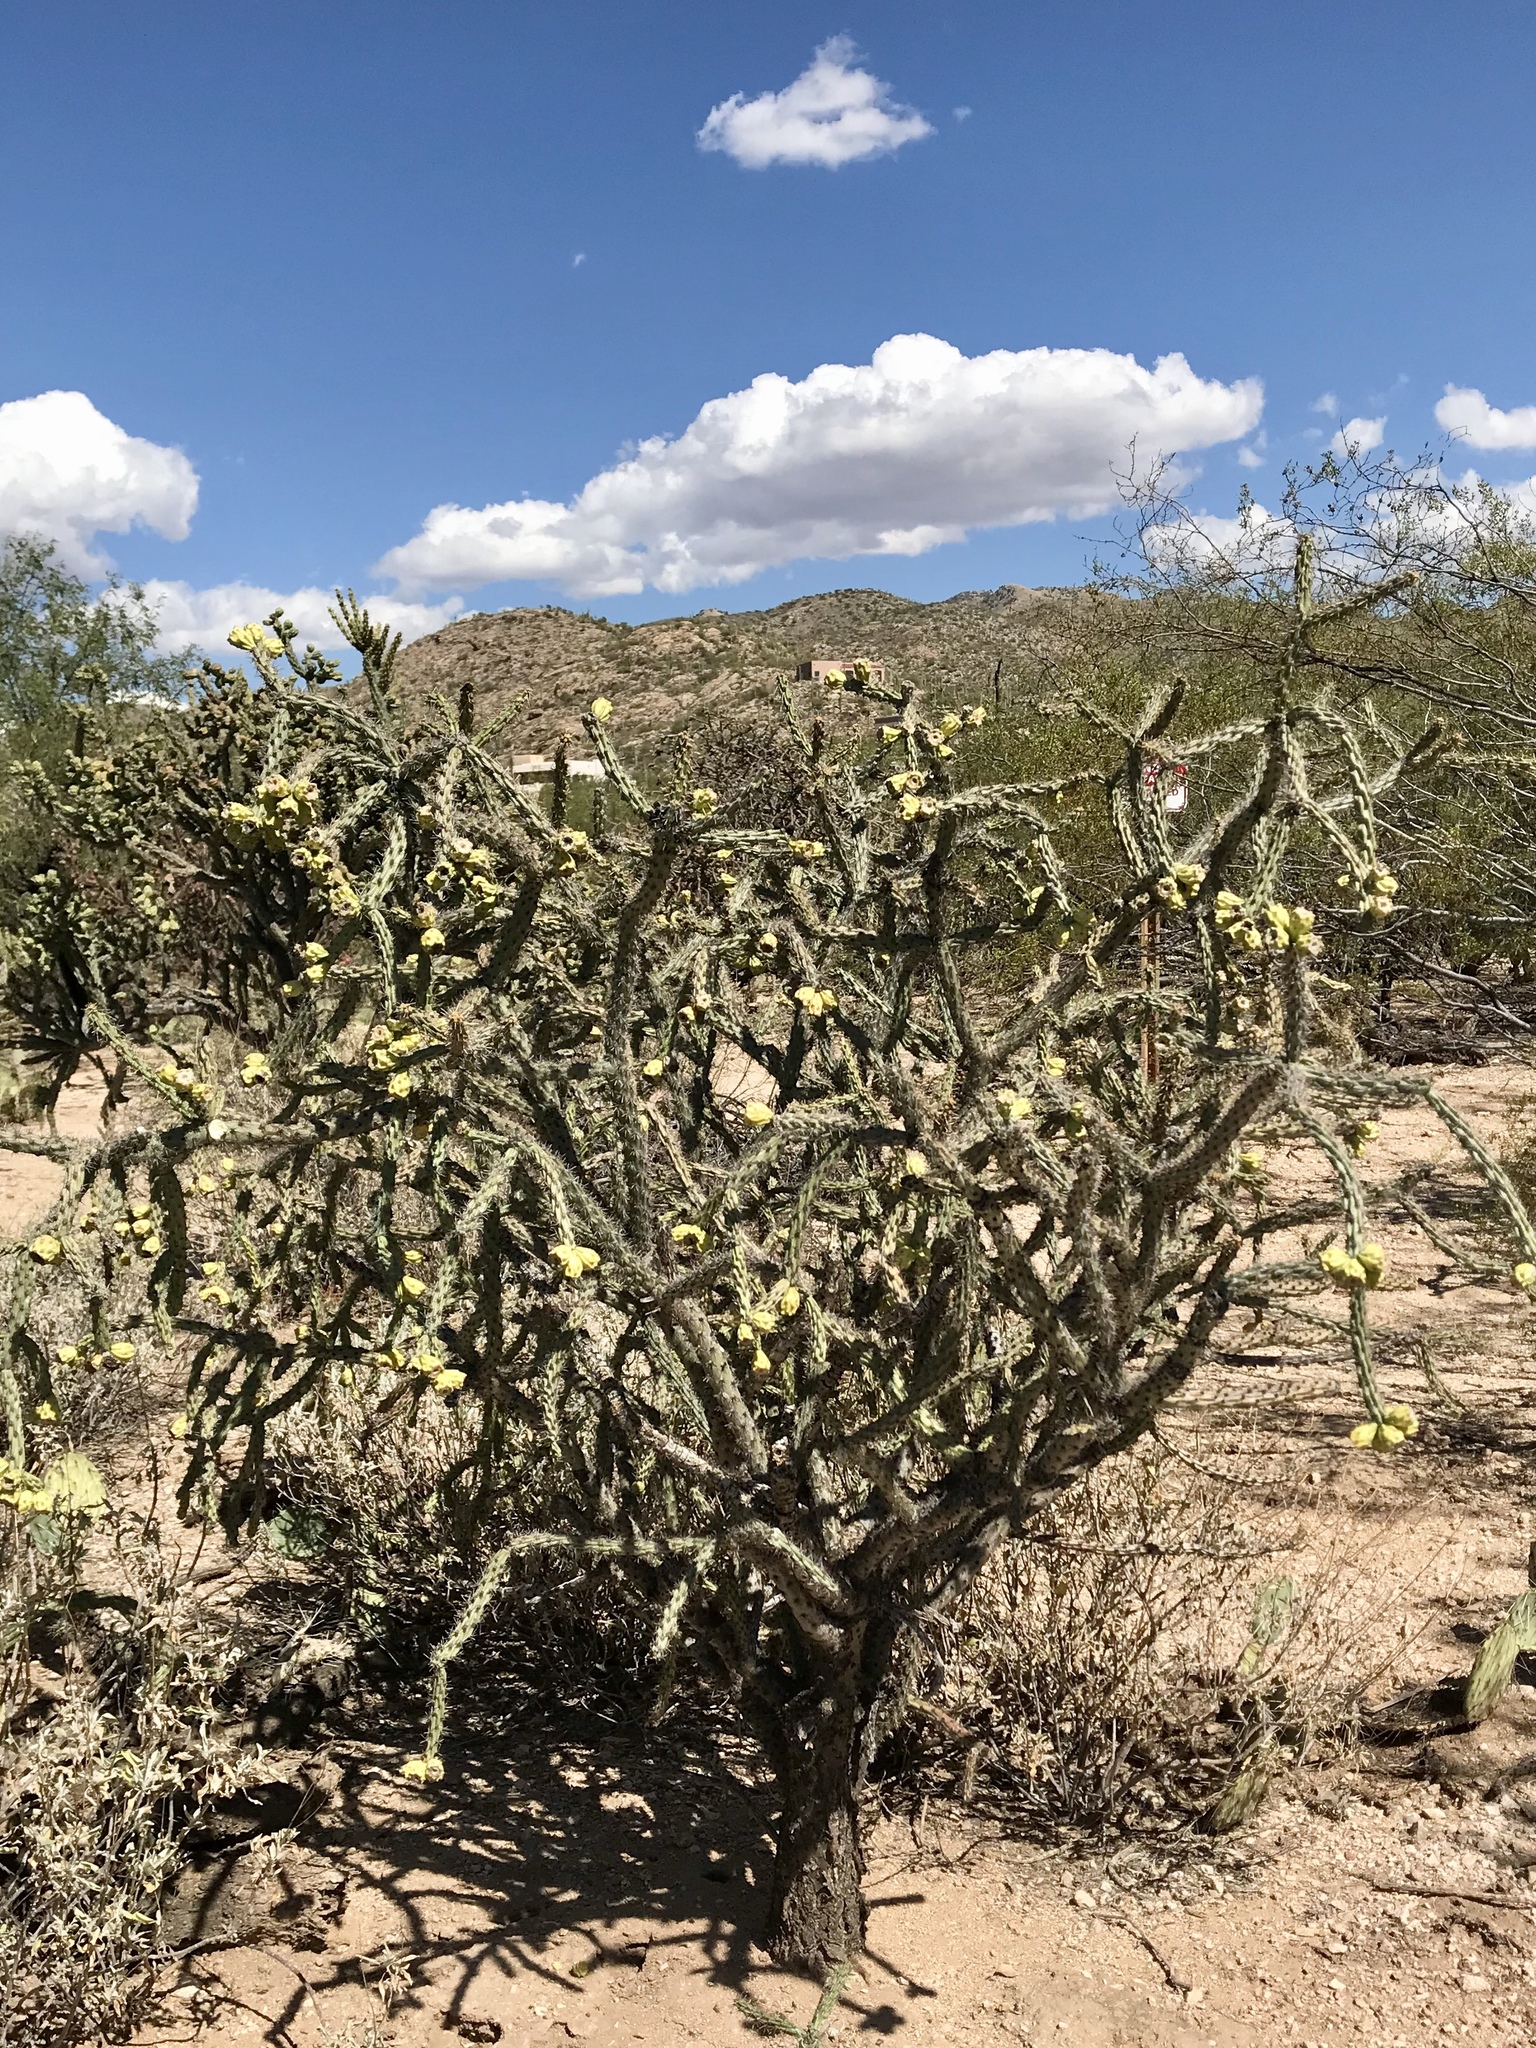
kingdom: Plantae
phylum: Tracheophyta
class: Magnoliopsida
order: Caryophyllales
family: Cactaceae
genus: Cylindropuntia
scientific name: Cylindropuntia thurberi
